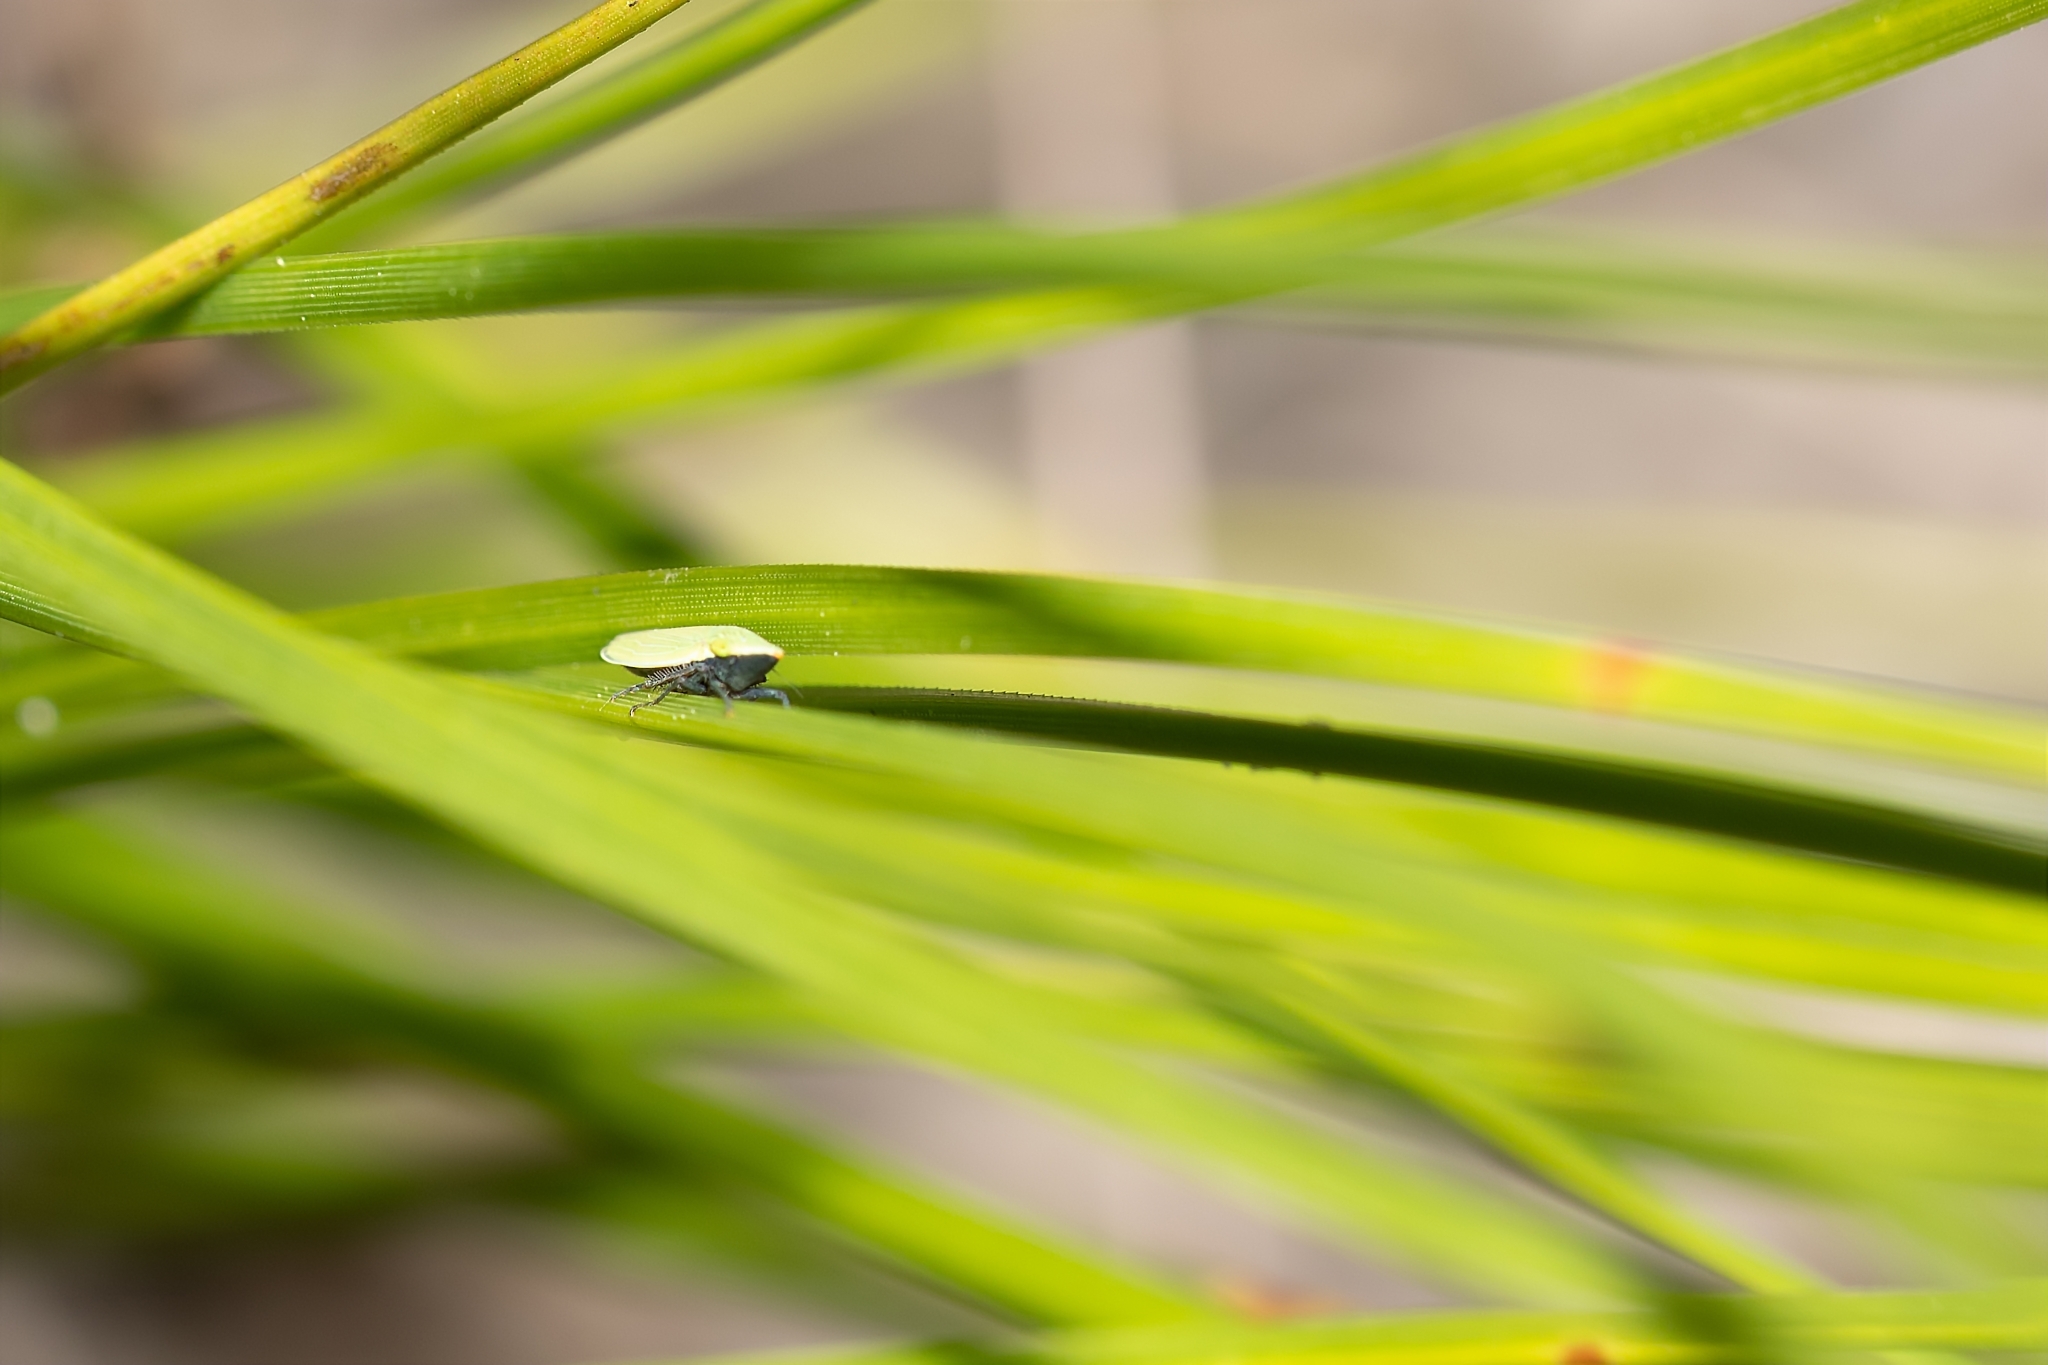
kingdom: Animalia
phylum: Arthropoda
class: Insecta
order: Hemiptera
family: Cicadellidae
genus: Draeculacephala
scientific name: Draeculacephala bradleyi
